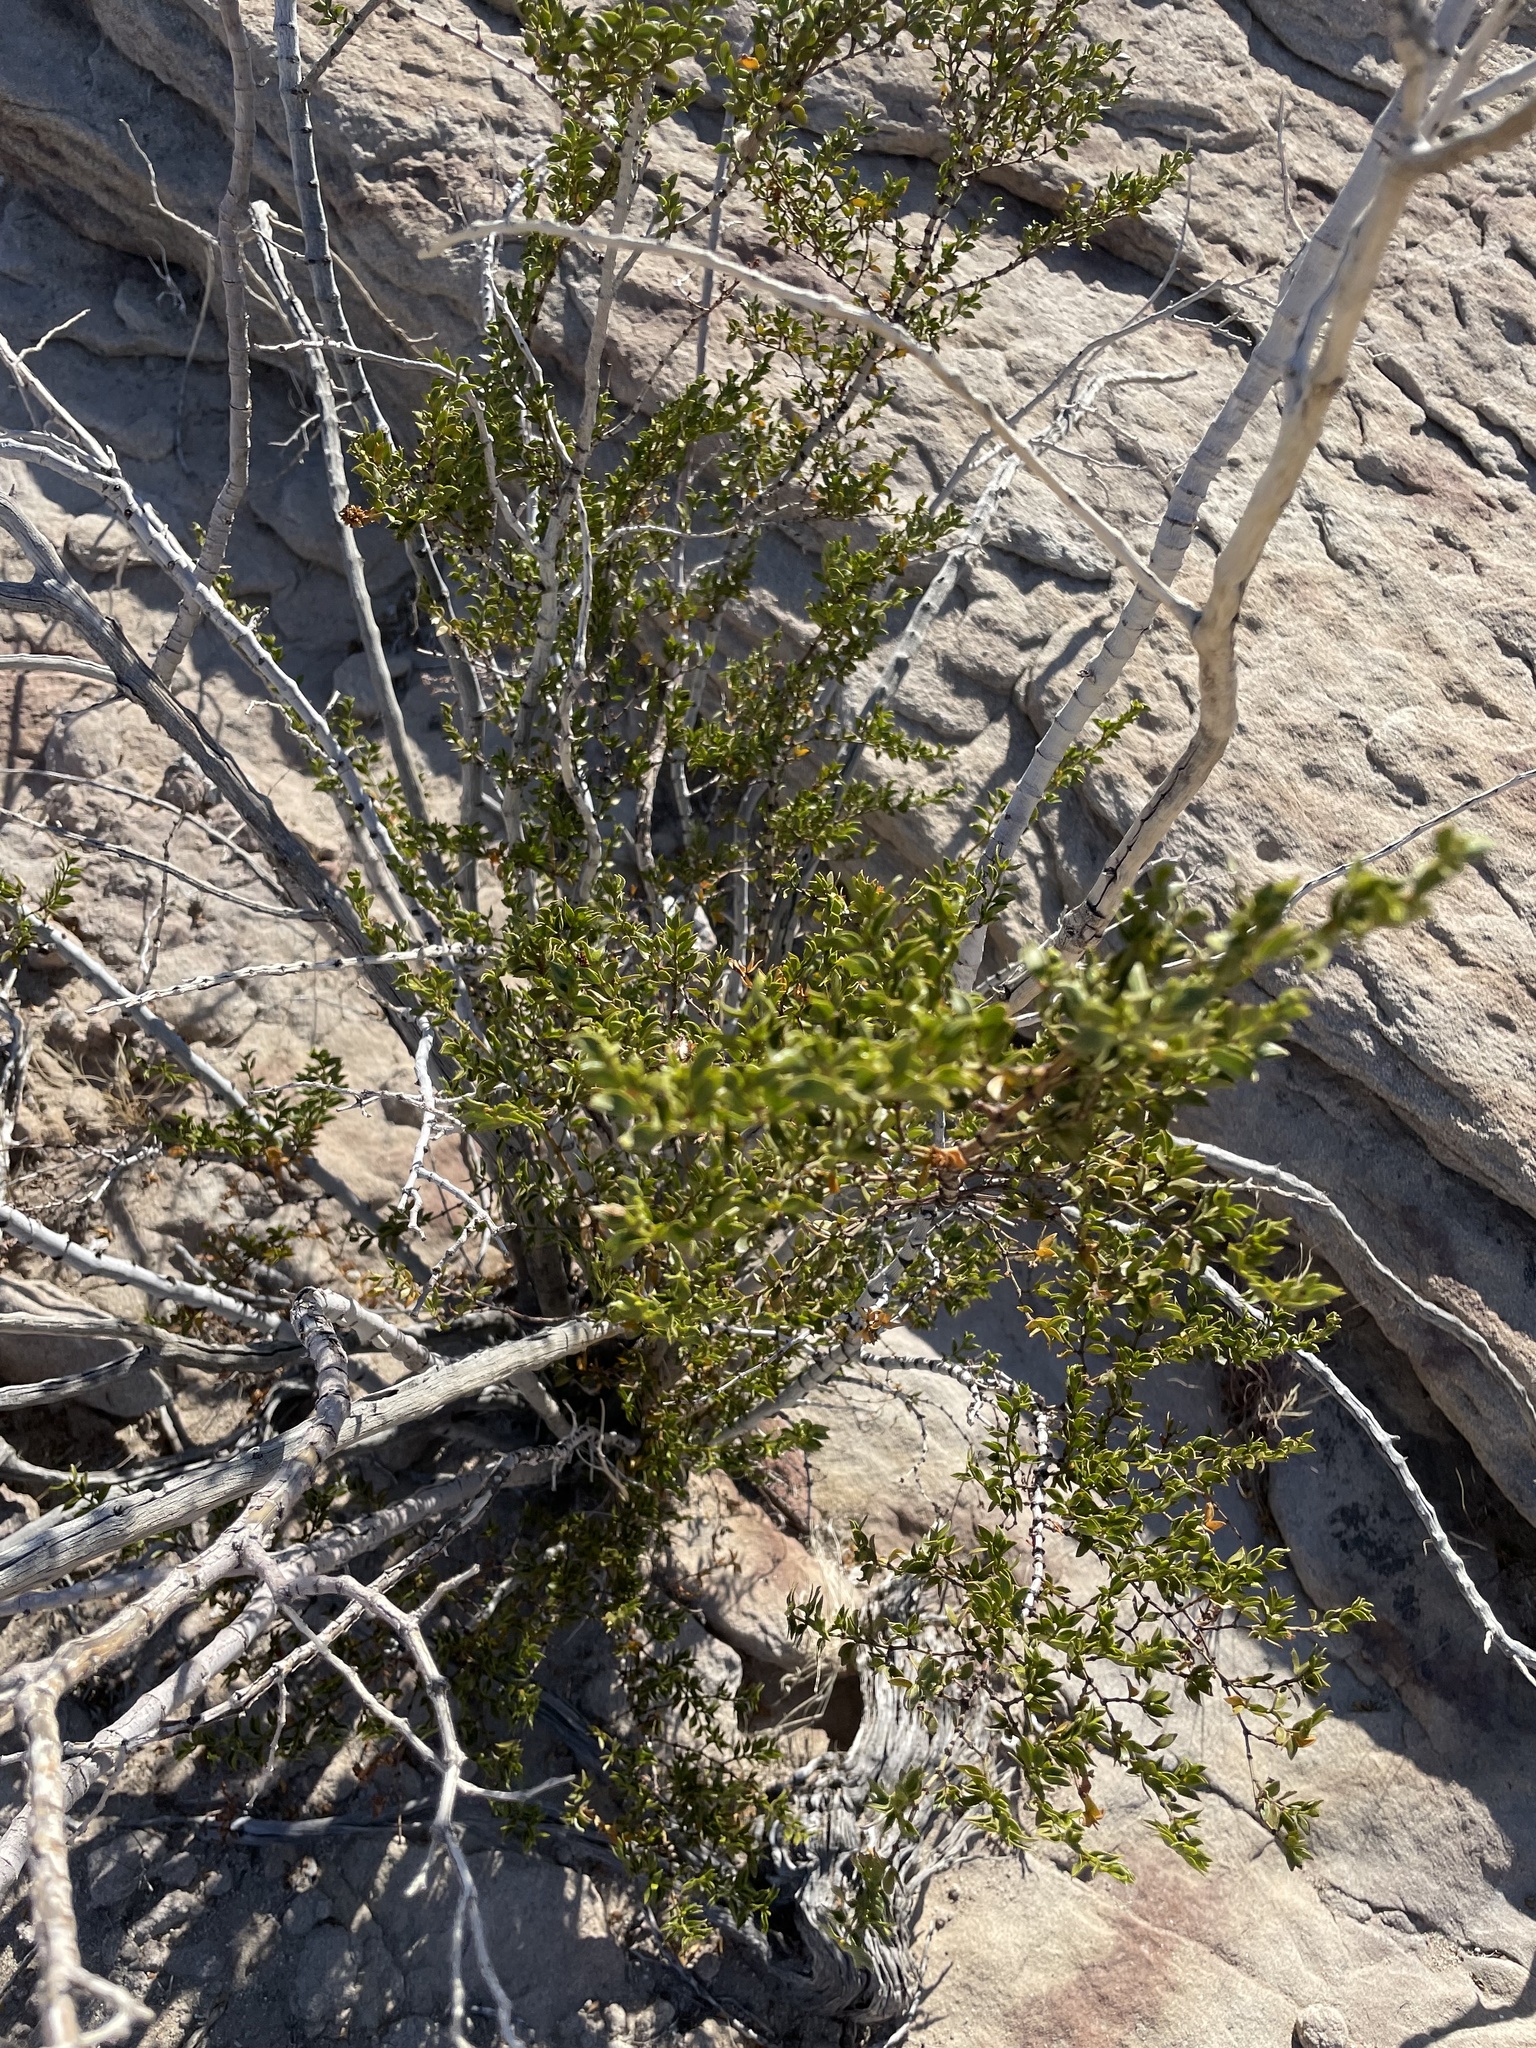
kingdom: Plantae
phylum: Tracheophyta
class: Magnoliopsida
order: Zygophyllales
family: Zygophyllaceae
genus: Larrea
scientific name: Larrea tridentata
